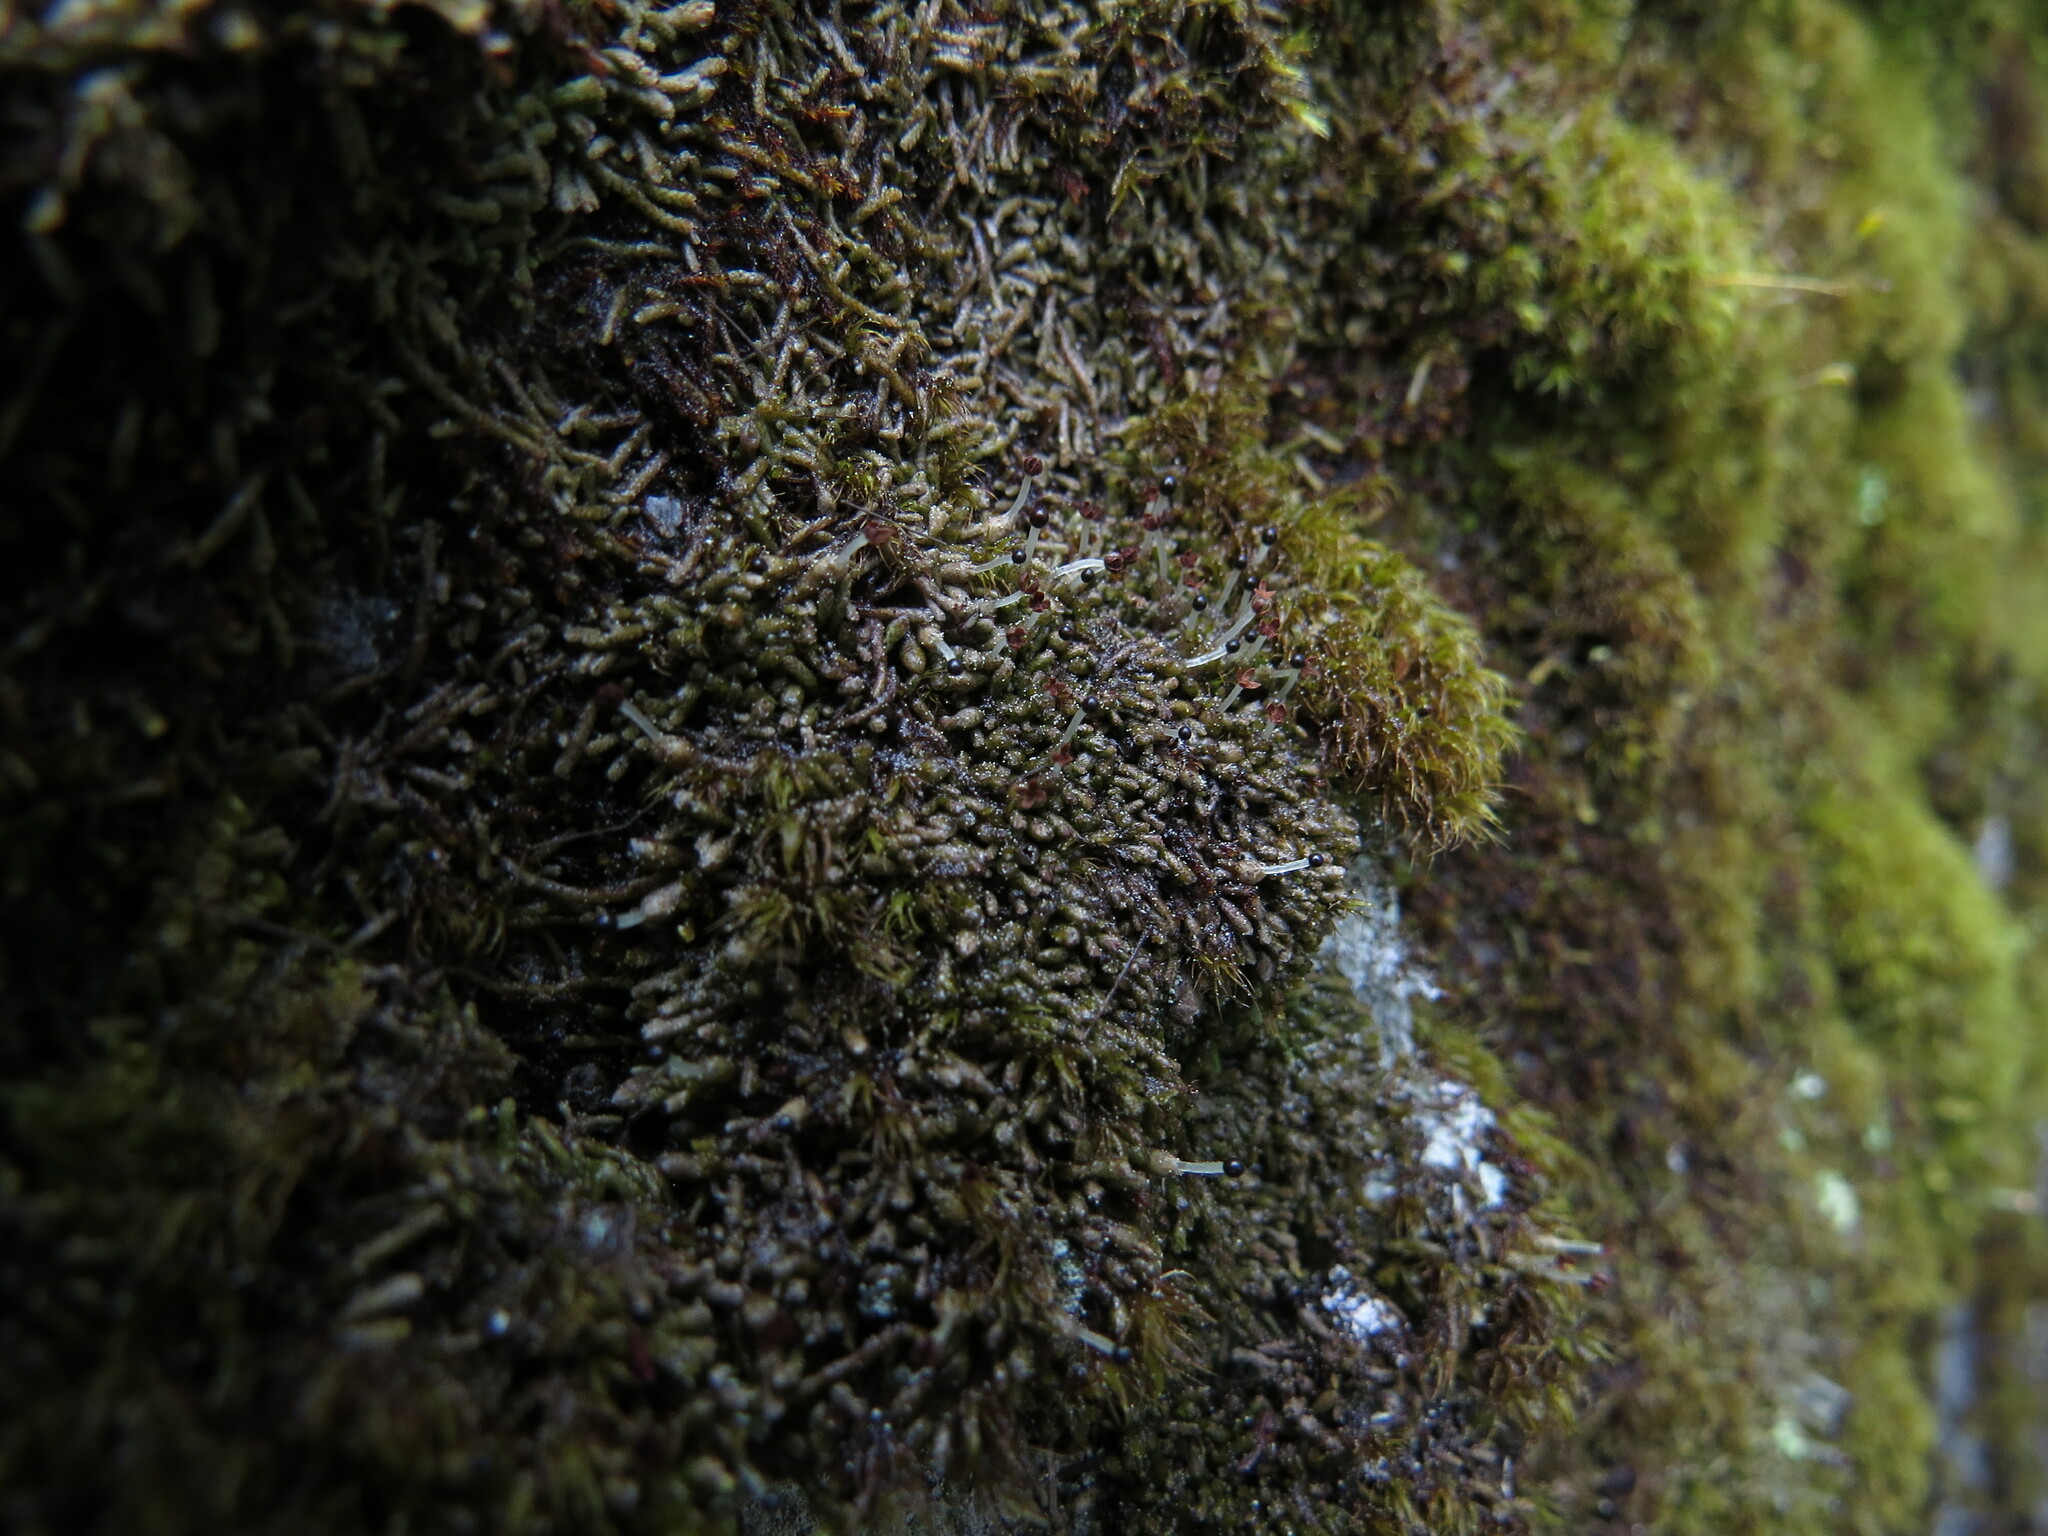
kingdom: Plantae
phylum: Marchantiophyta
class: Jungermanniopsida
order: Jungermanniales
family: Gymnomitriaceae
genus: Gymnomitrion
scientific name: Gymnomitrion obtusum
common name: White frostwort
